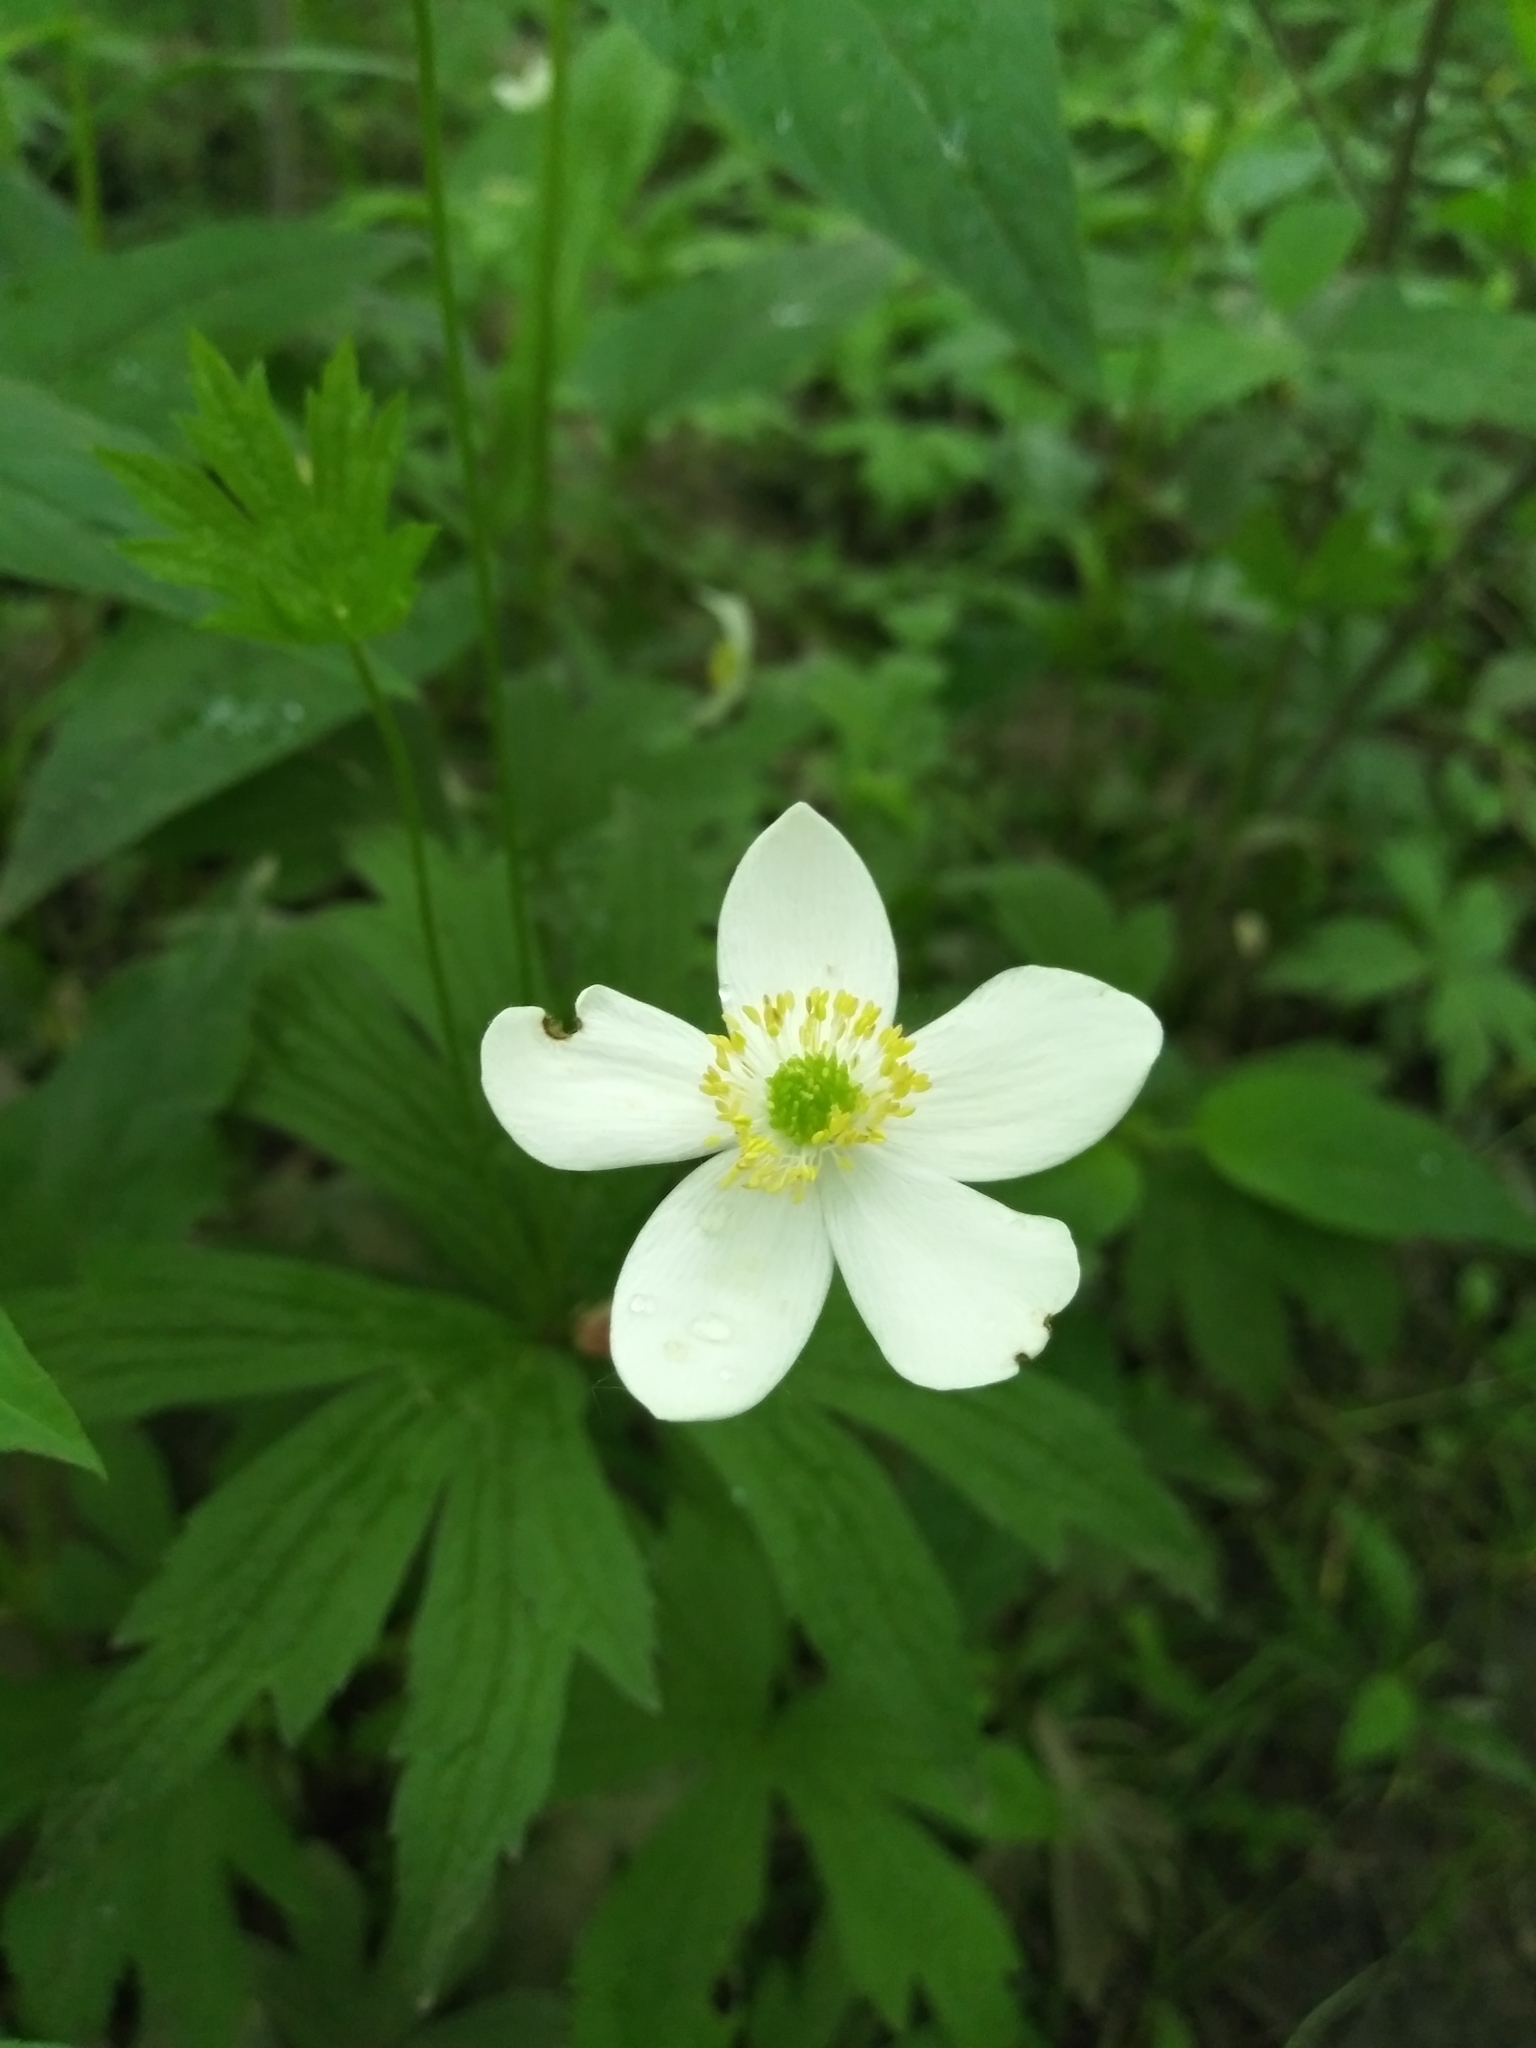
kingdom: Plantae
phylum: Tracheophyta
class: Magnoliopsida
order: Ranunculales
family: Ranunculaceae
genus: Anemonastrum
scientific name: Anemonastrum canadense
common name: Canada anemone
